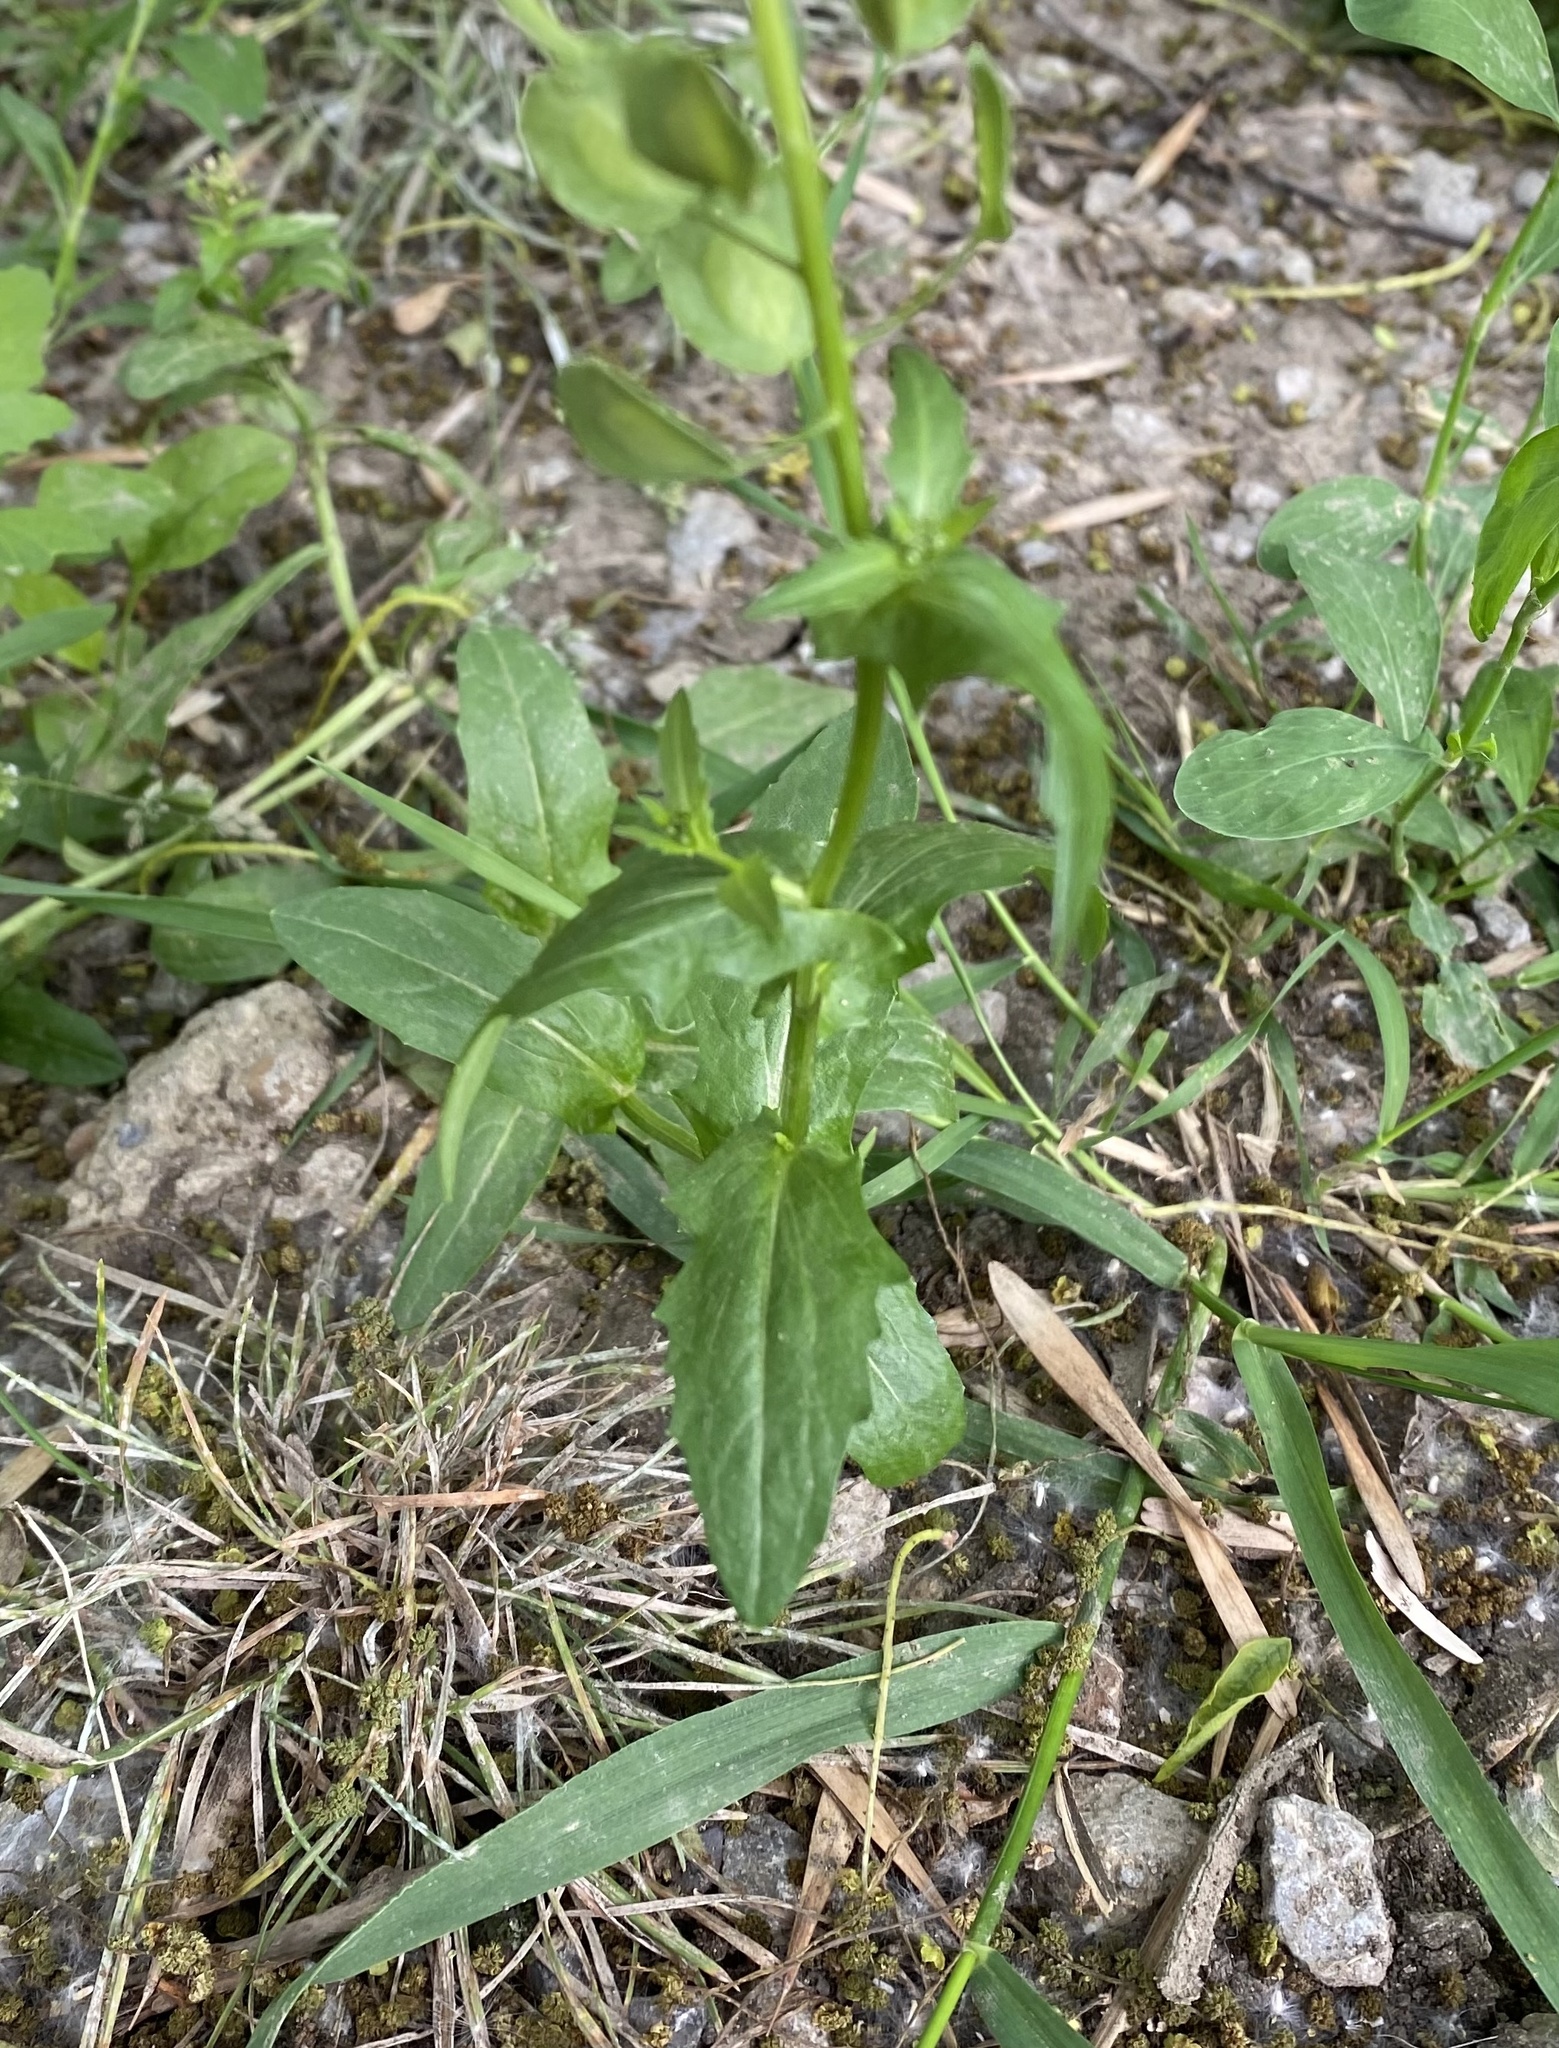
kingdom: Plantae
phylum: Tracheophyta
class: Magnoliopsida
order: Brassicales
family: Brassicaceae
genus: Thlaspi
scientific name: Thlaspi arvense
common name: Field pennycress
